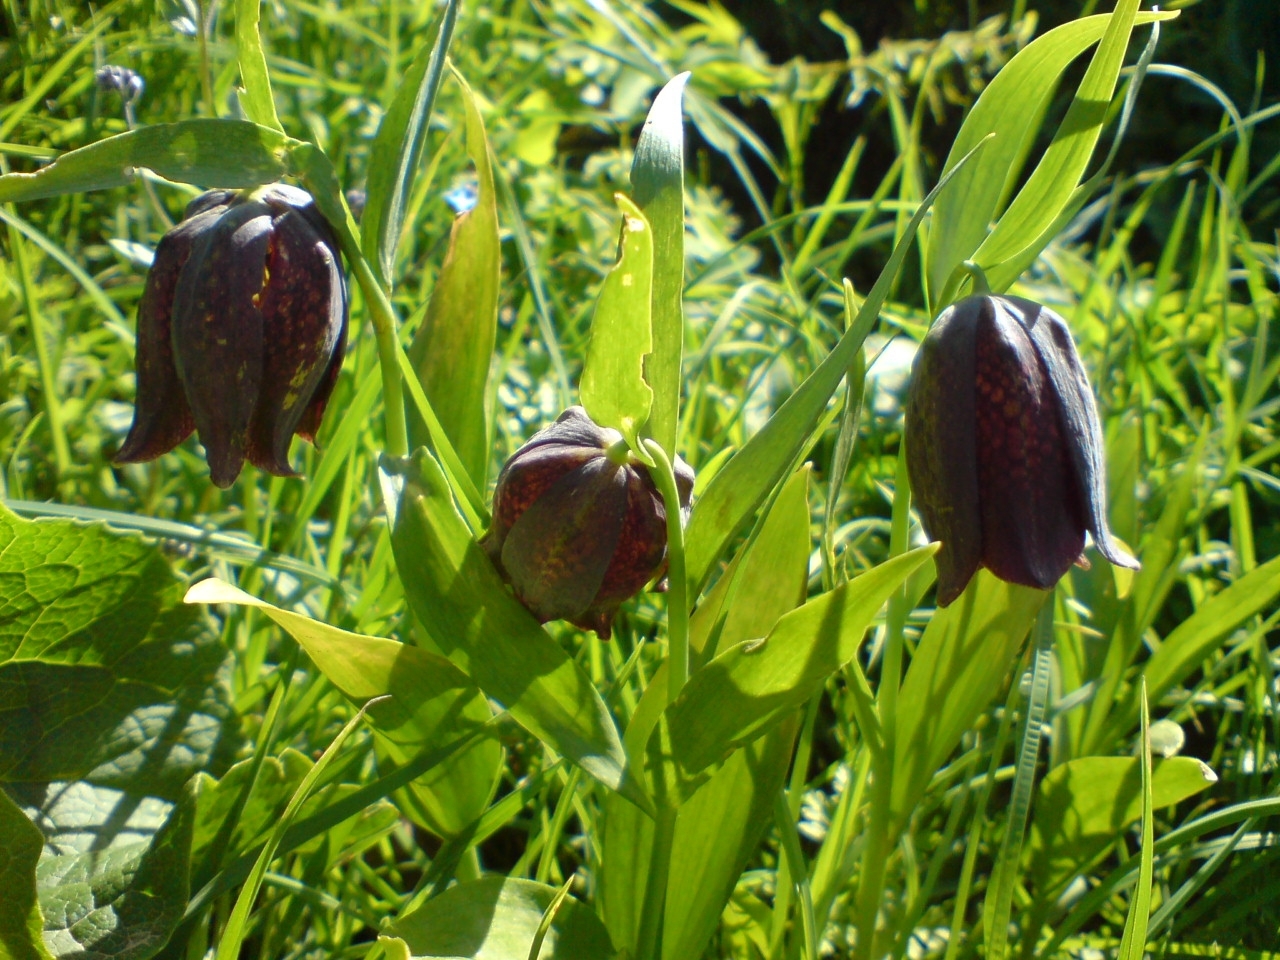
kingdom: Plantae
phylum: Tracheophyta
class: Liliopsida
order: Liliales
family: Liliaceae
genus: Fritillaria
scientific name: Fritillaria kotschyana
